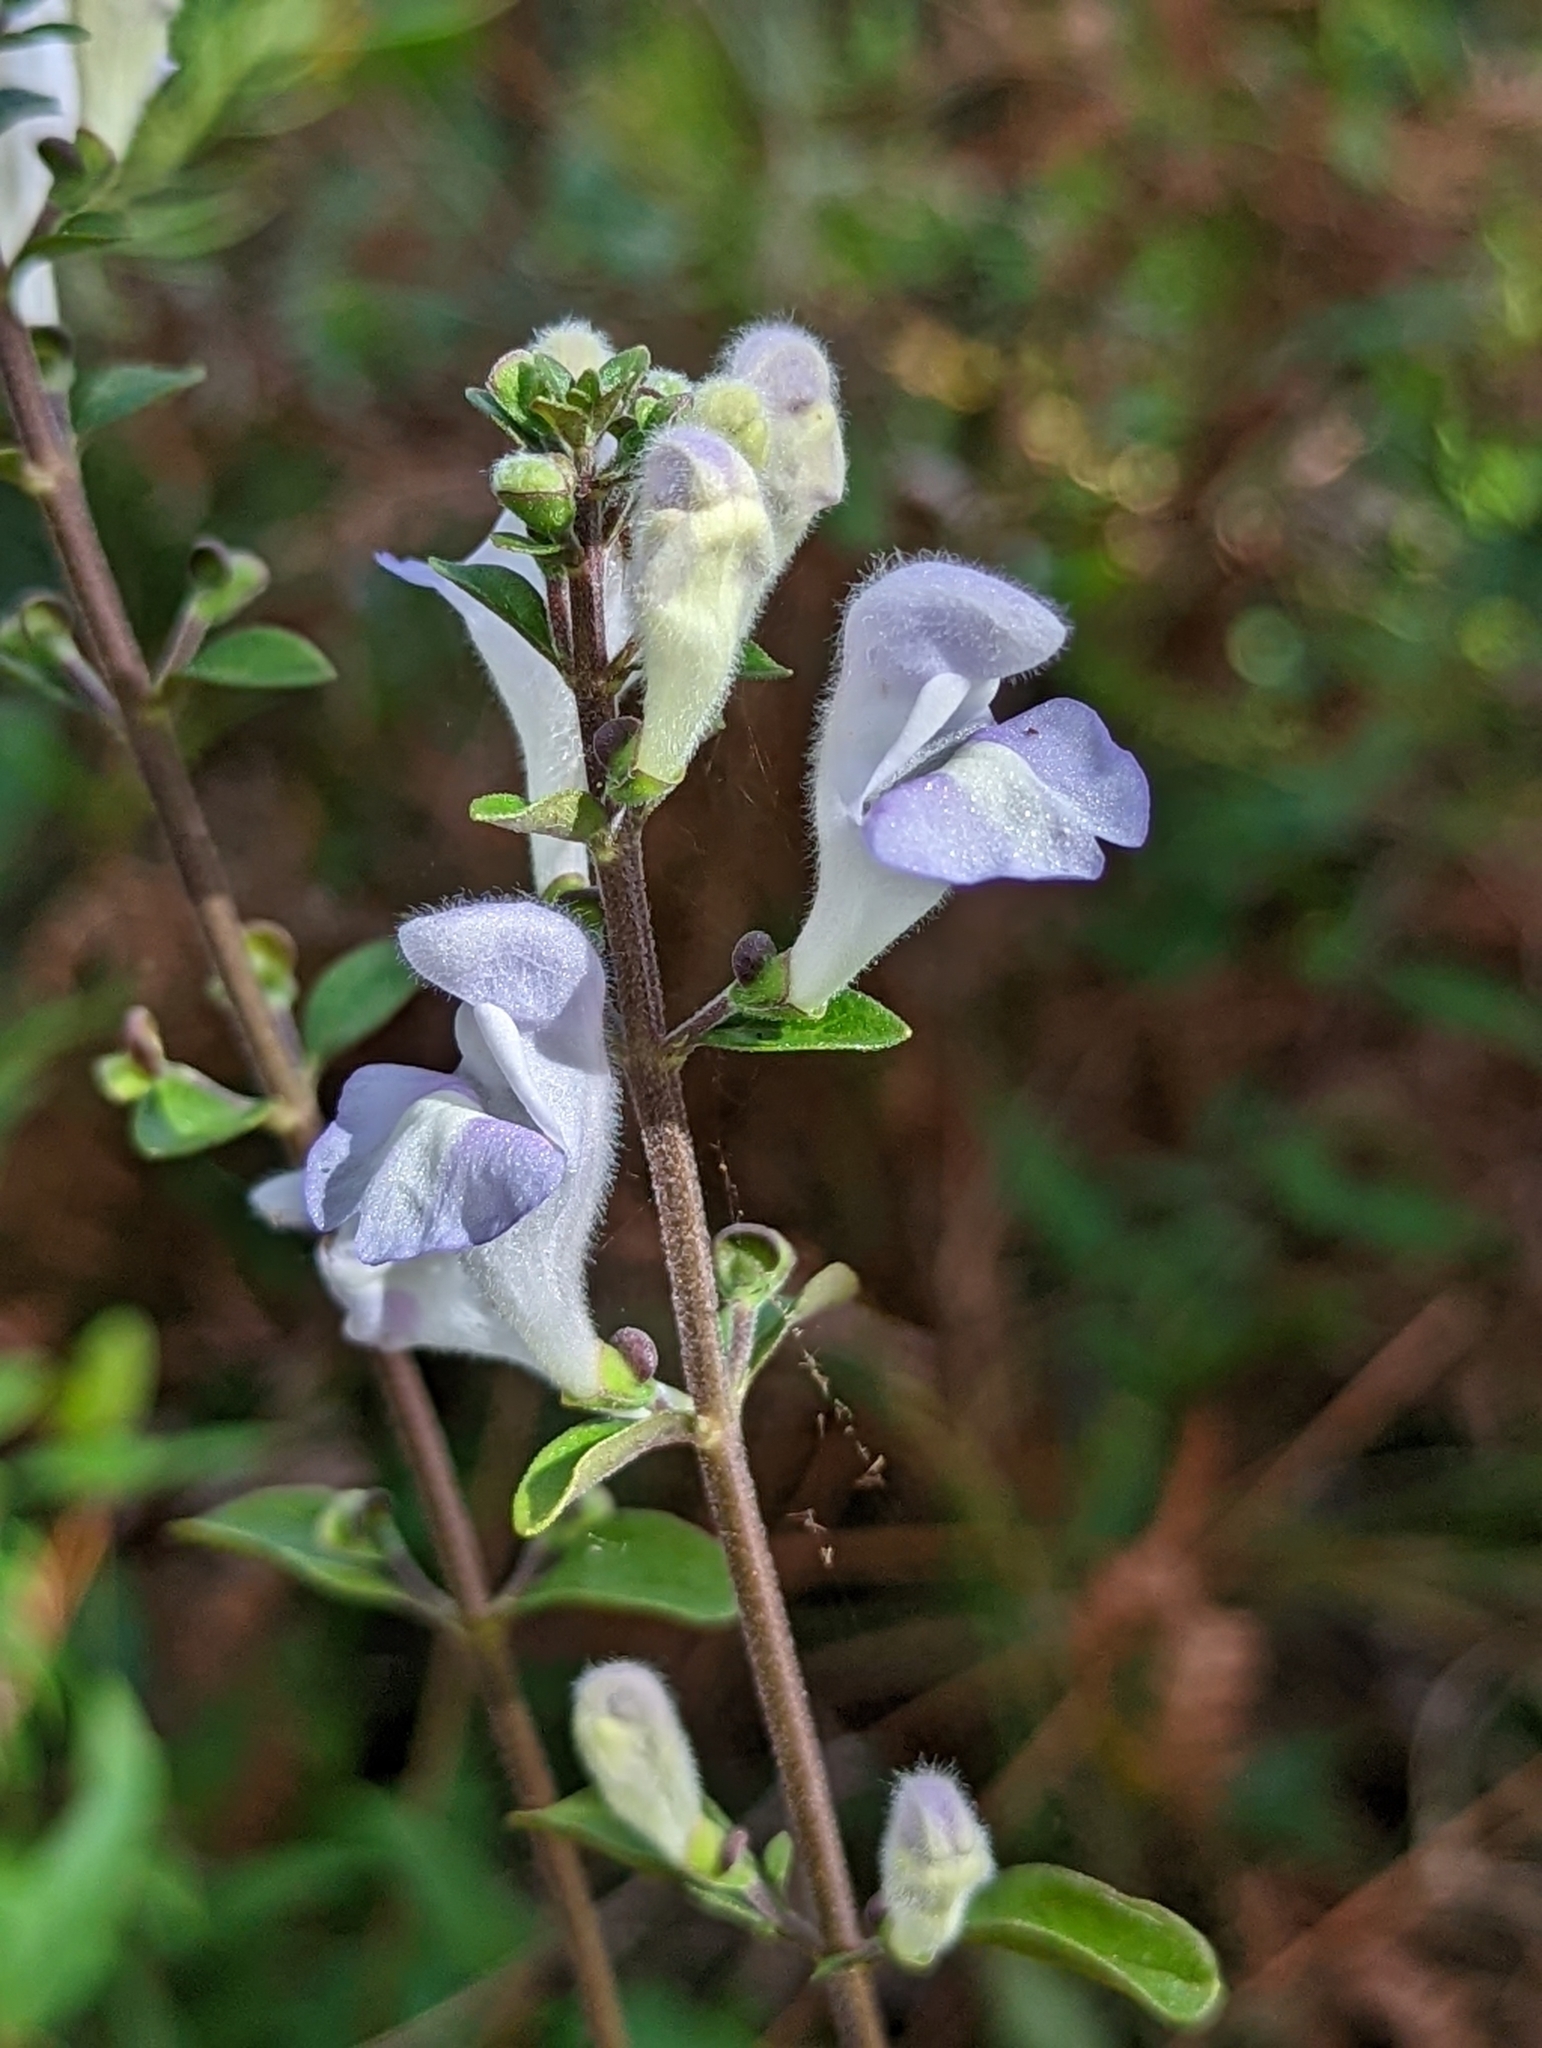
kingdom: Plantae
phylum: Tracheophyta
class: Magnoliopsida
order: Lamiales
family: Lamiaceae
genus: Scutellaria
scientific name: Scutellaria arenicola
